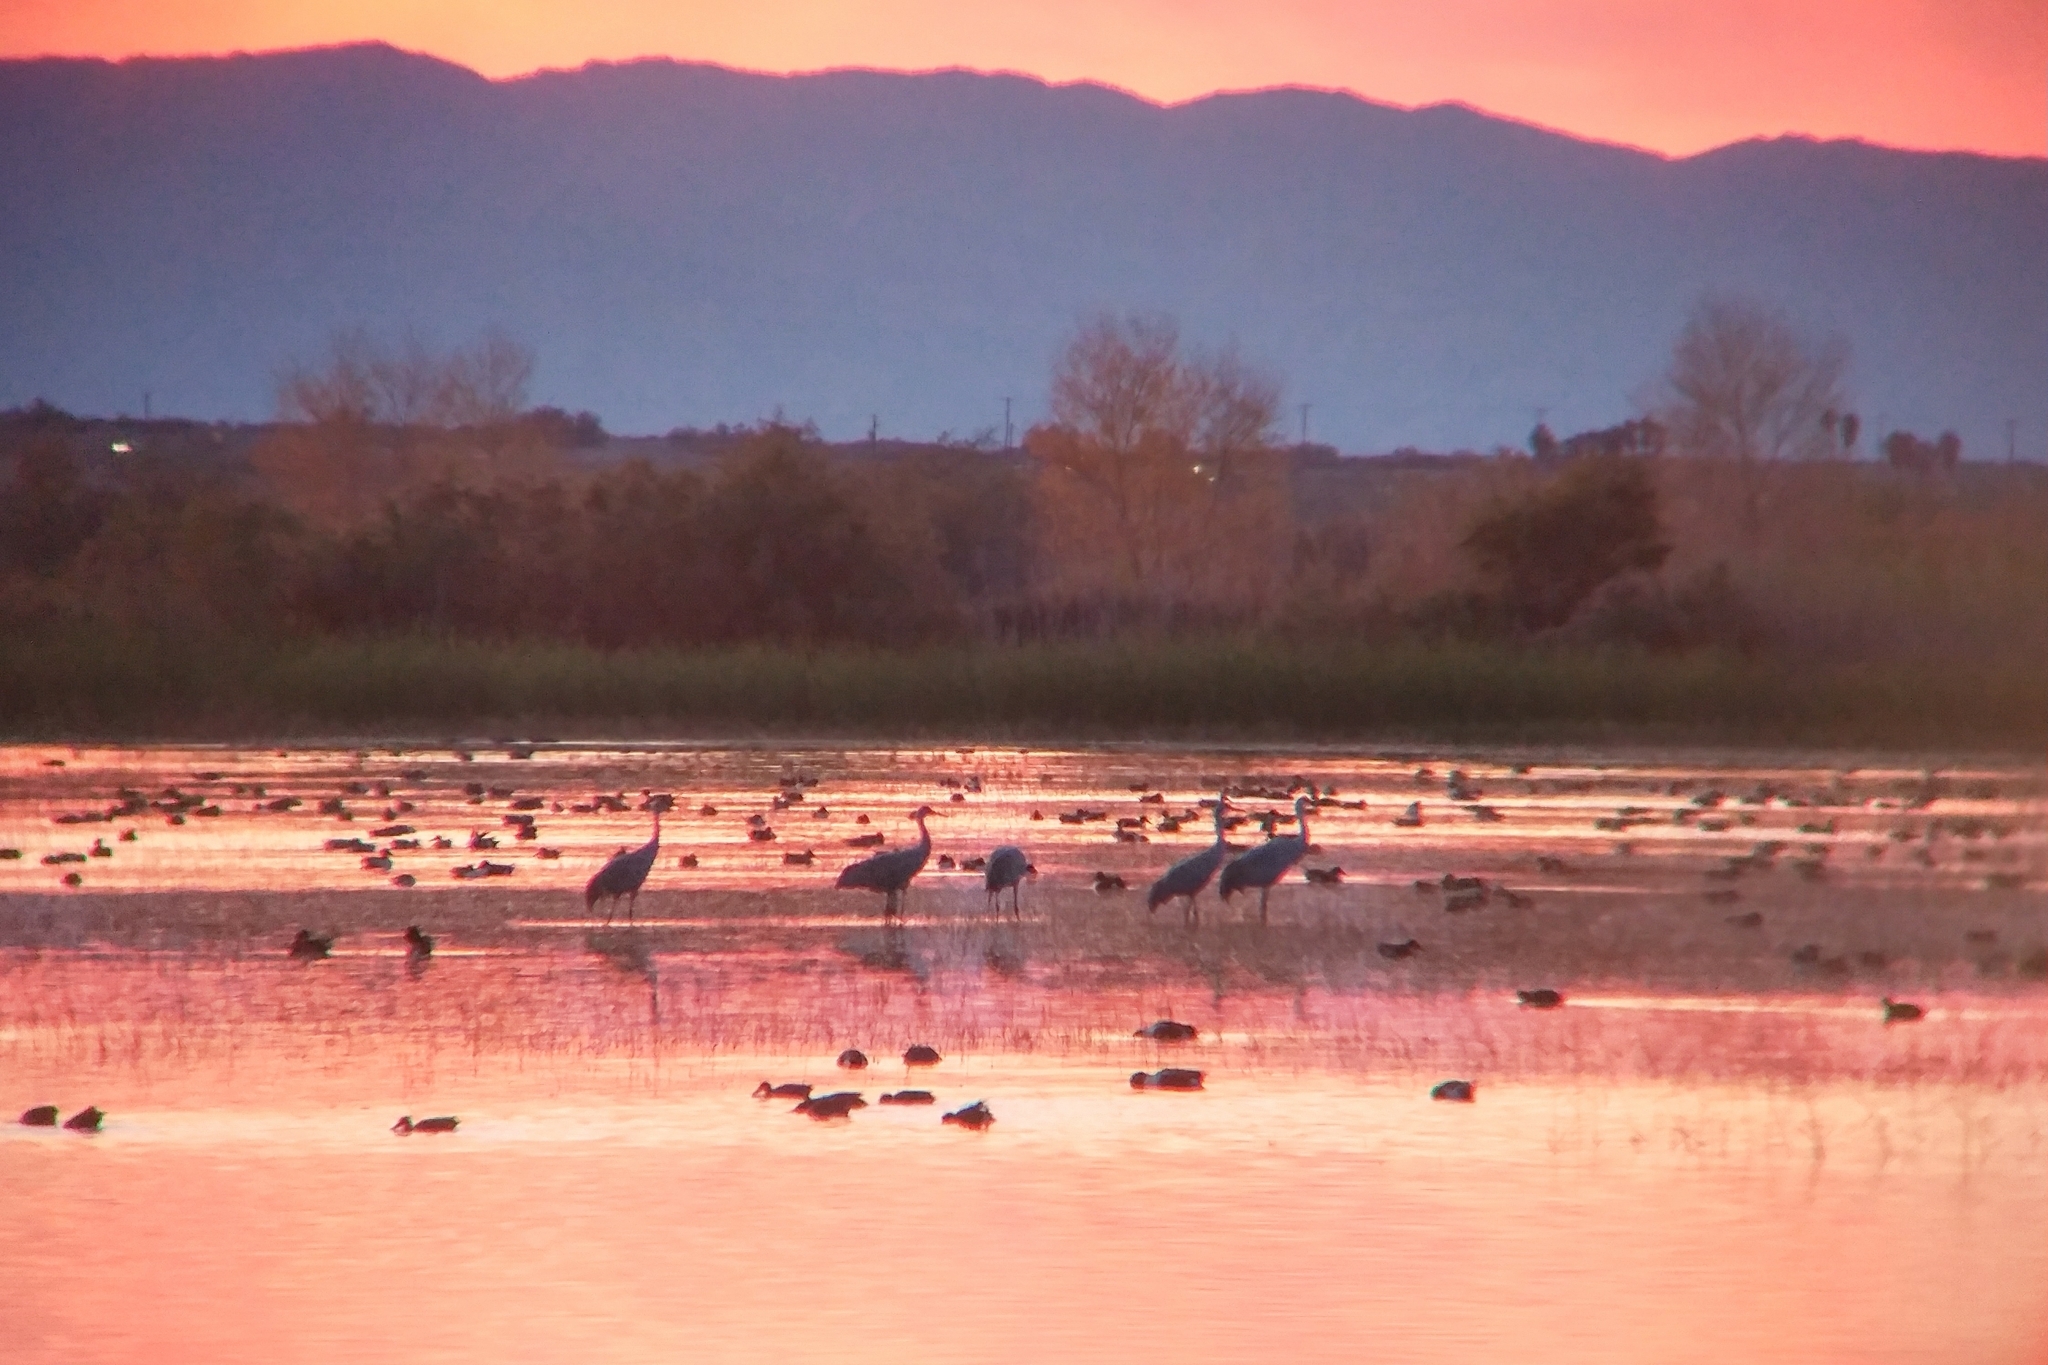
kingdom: Animalia
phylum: Chordata
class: Aves
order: Gruiformes
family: Gruidae
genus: Grus
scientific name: Grus canadensis
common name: Sandhill crane
